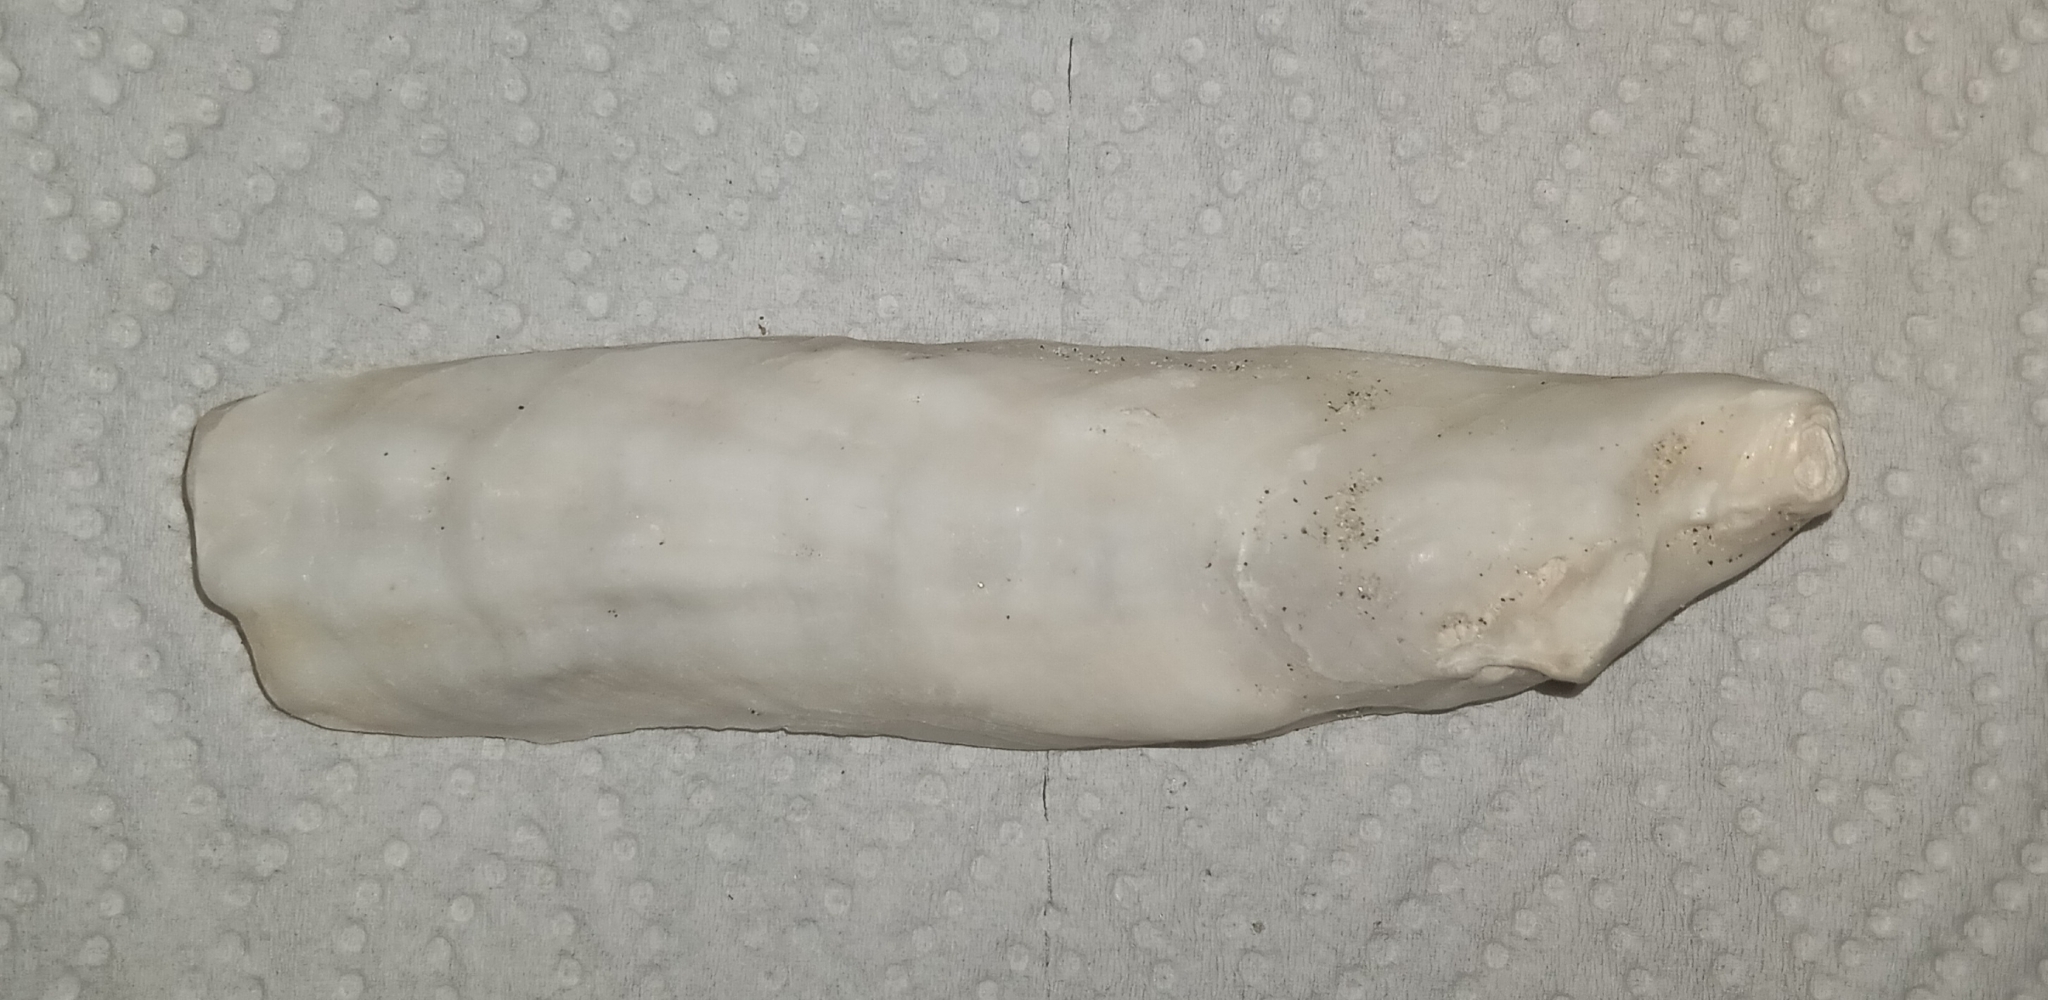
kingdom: Animalia
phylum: Mollusca
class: Bivalvia
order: Ostreida
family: Ostreidae
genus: Crassostrea
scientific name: Crassostrea virginica
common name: American oyster
